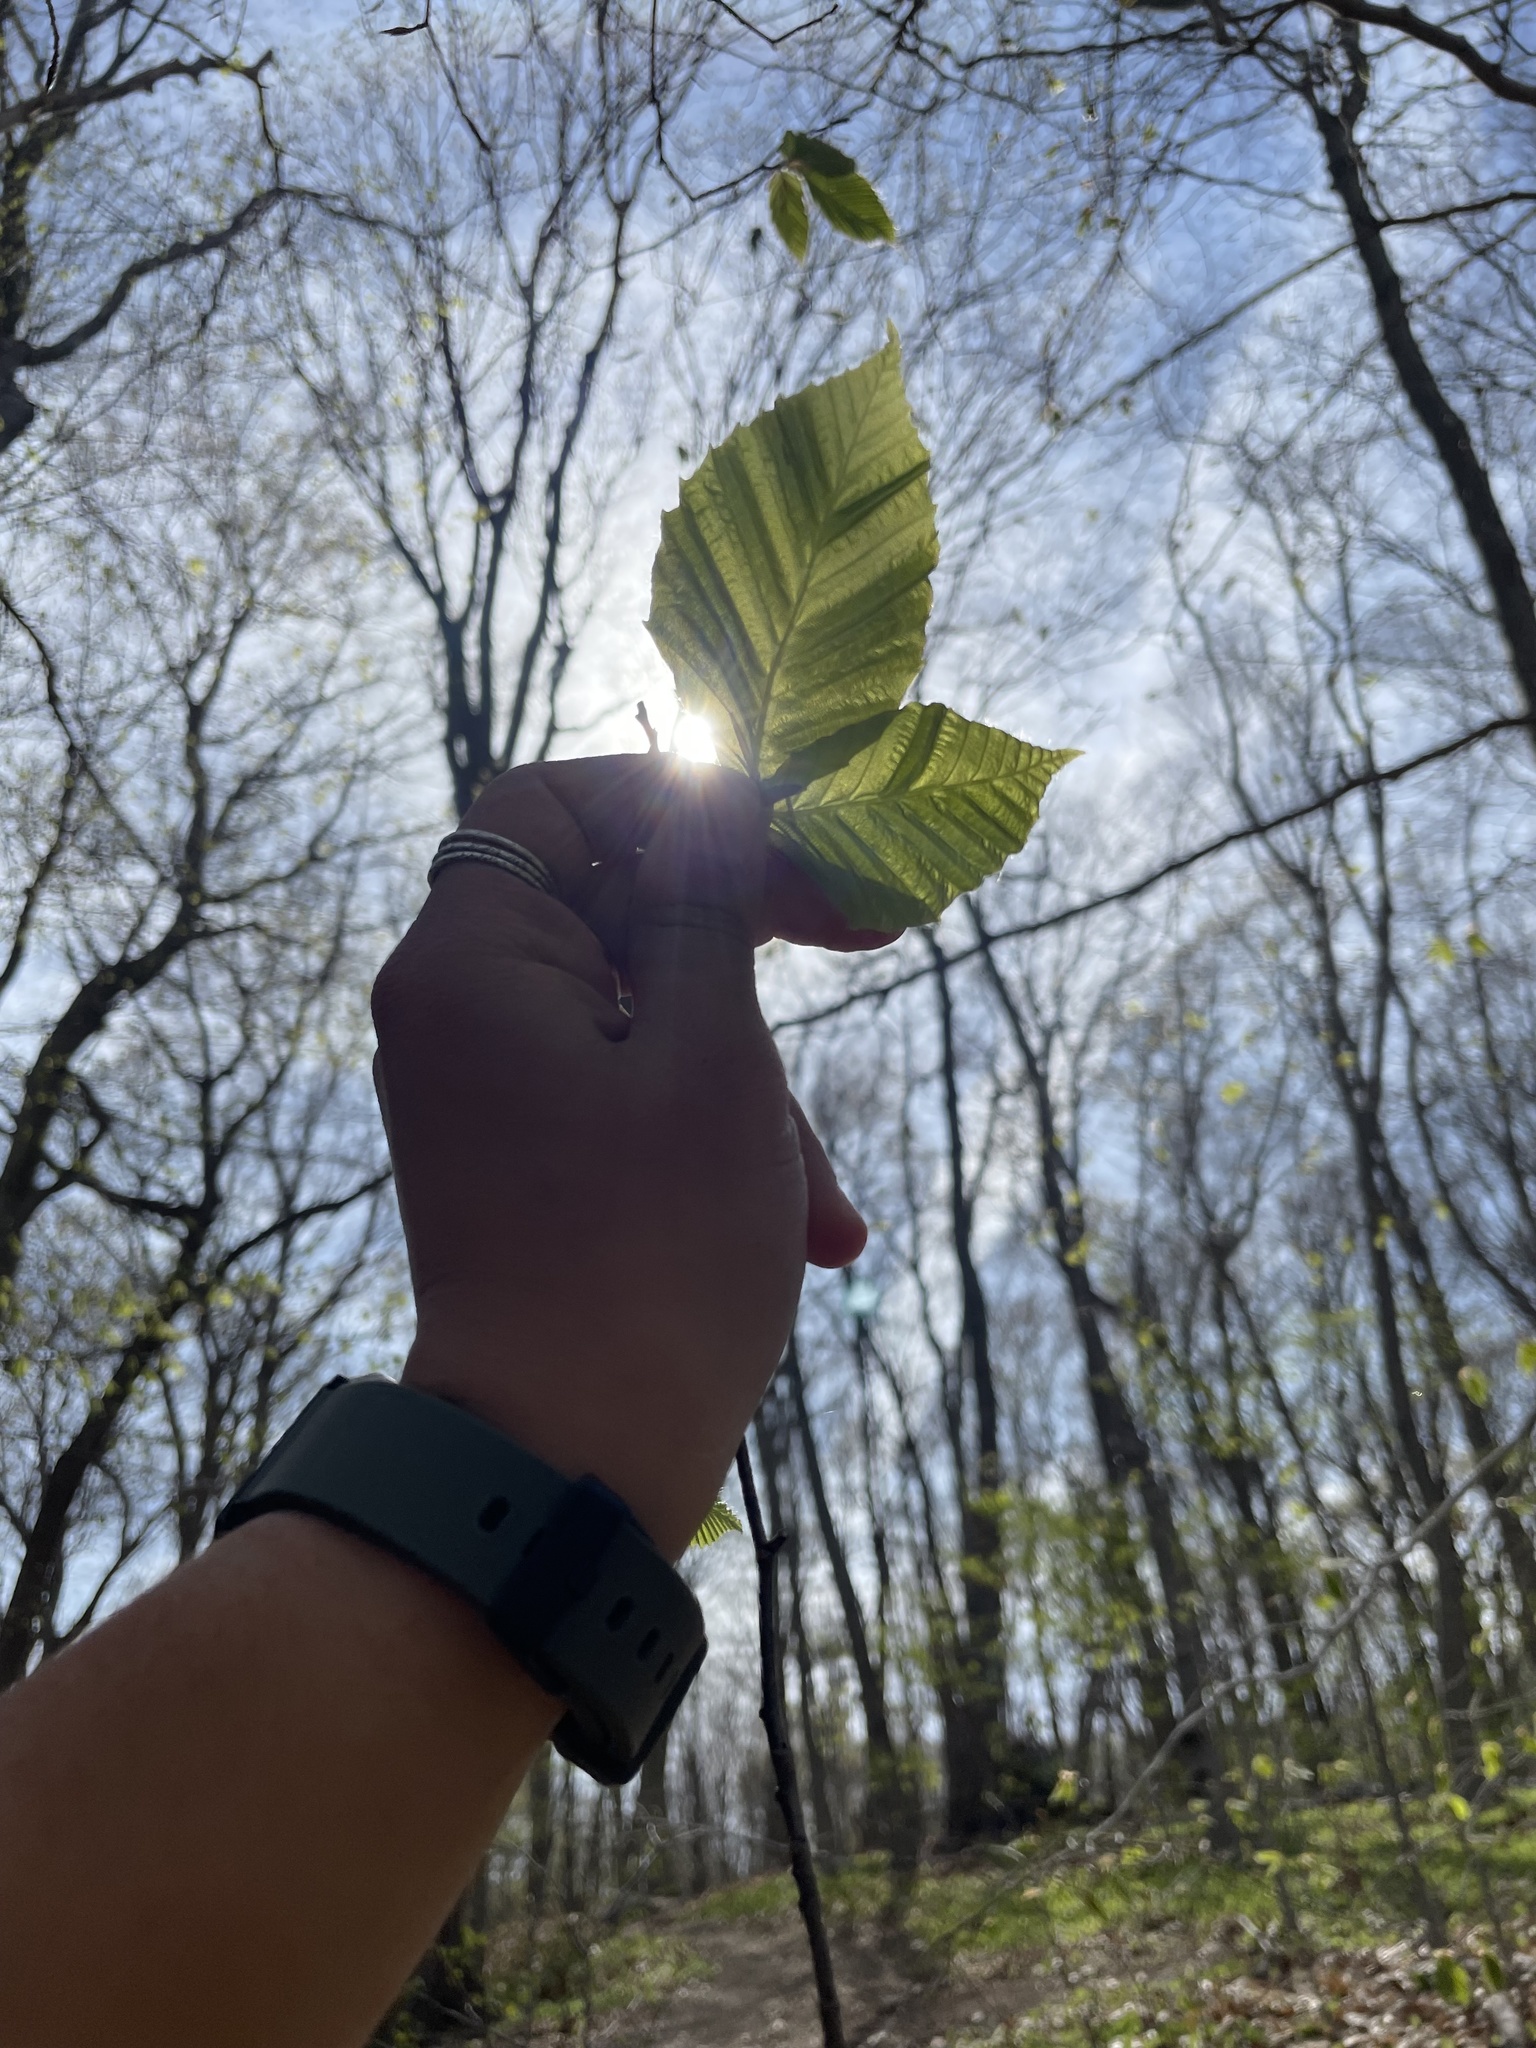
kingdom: Animalia
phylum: Nematoda
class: Chromadorea
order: Rhabditida
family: Anguinidae
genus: Litylenchus
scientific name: Litylenchus crenatae
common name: Beech leaf disease
